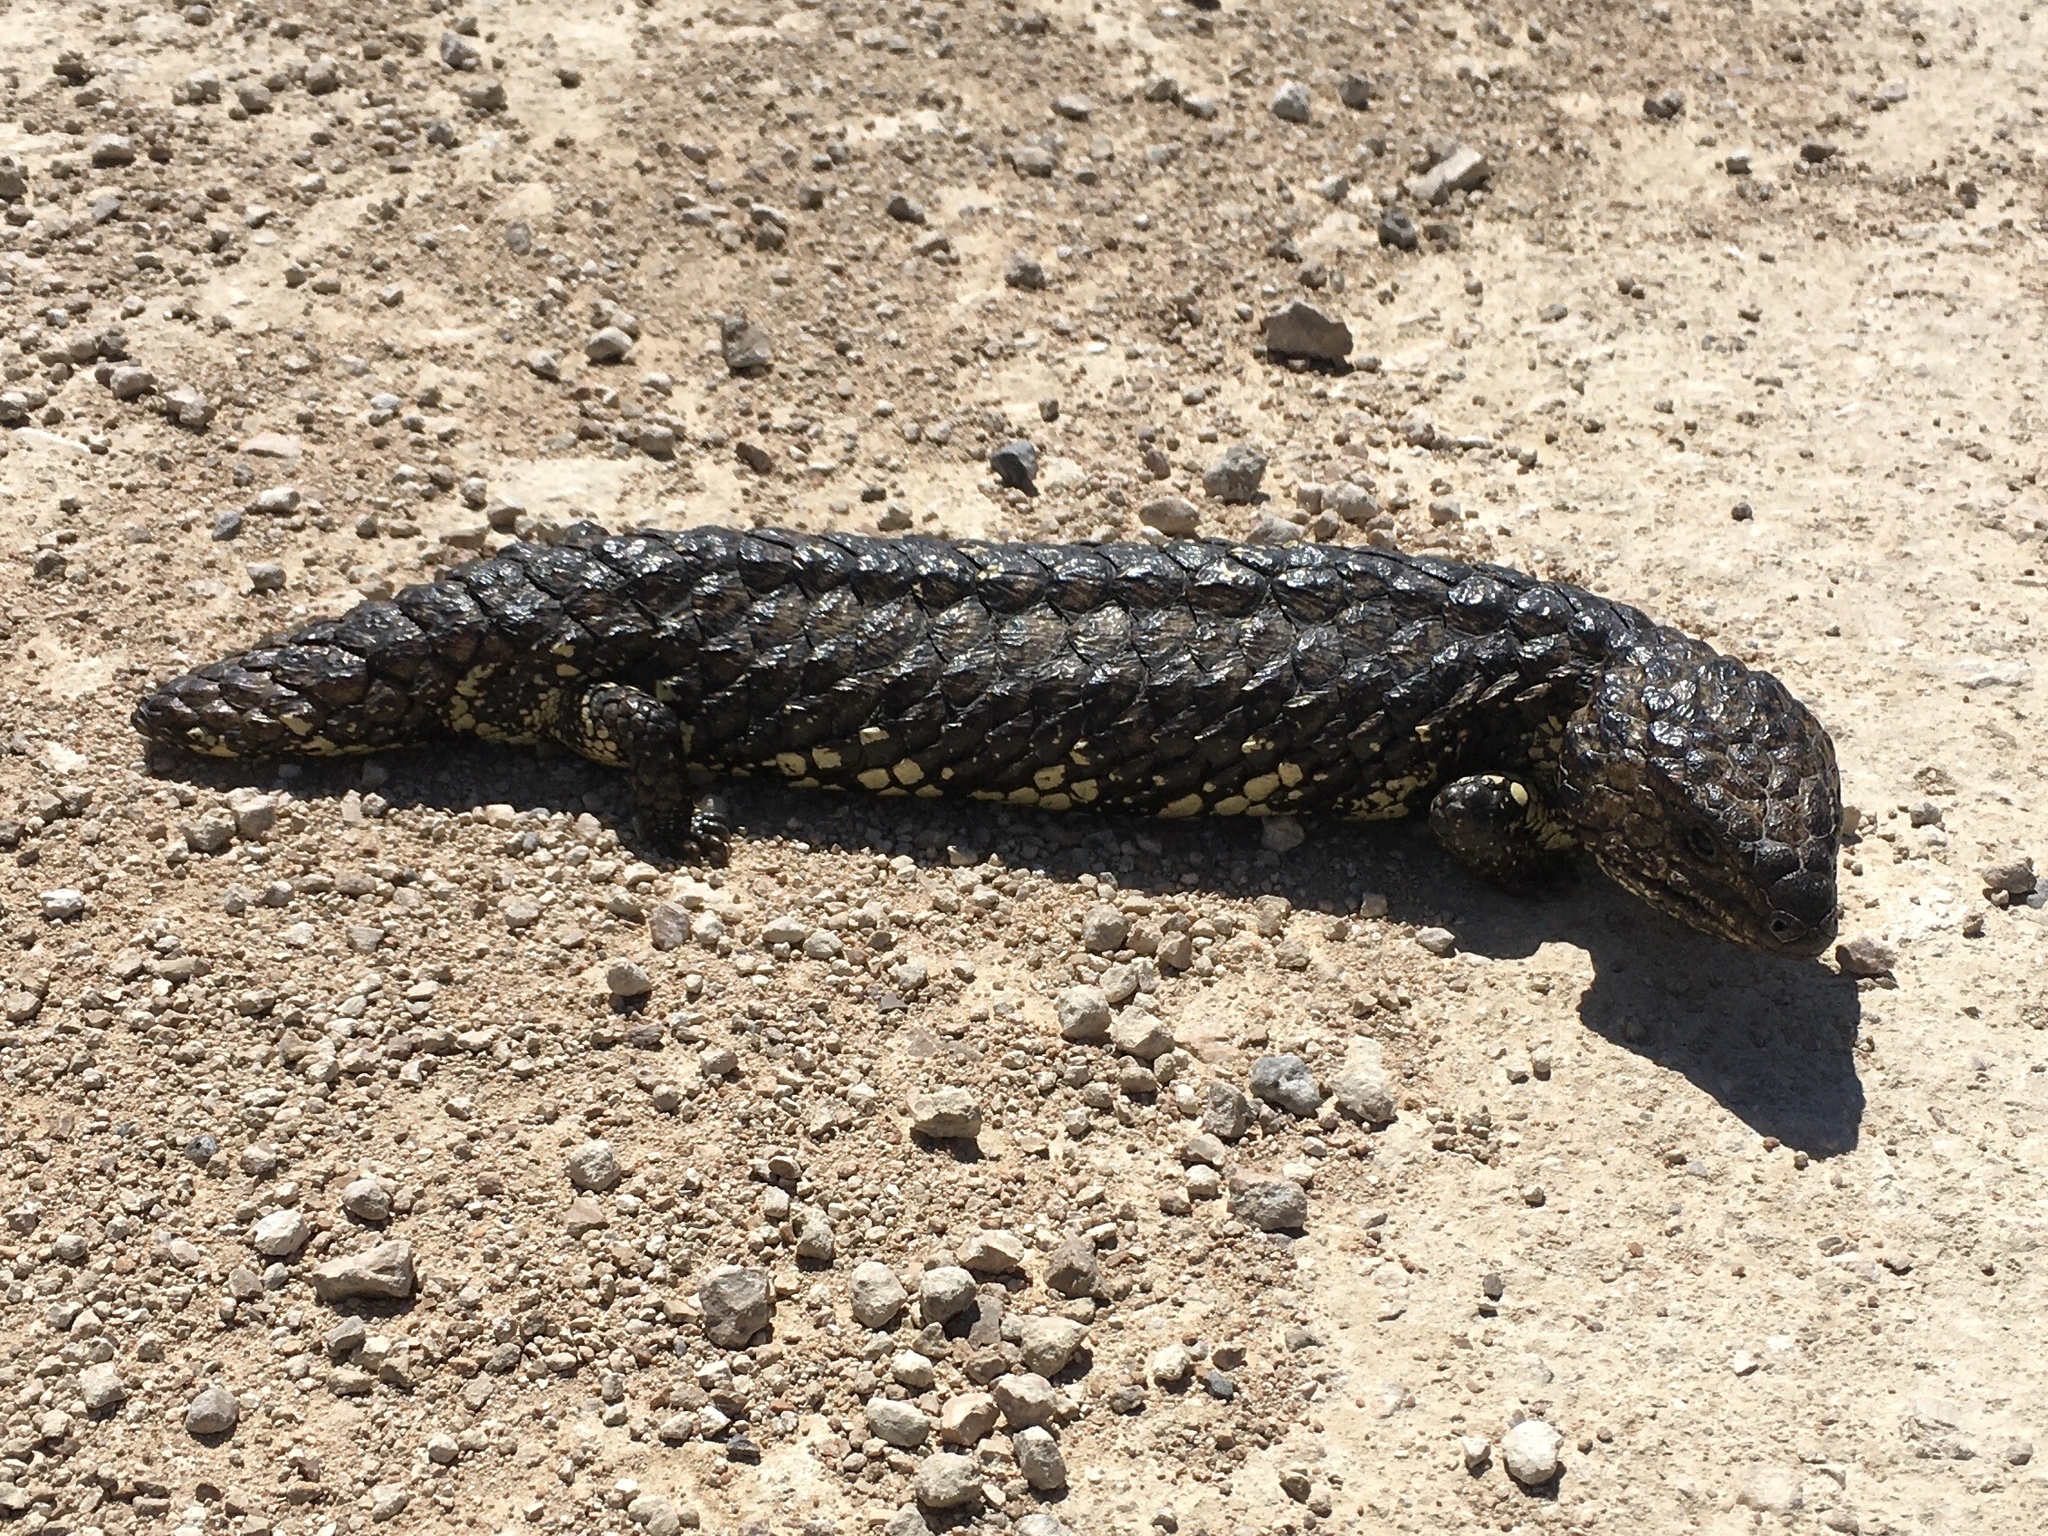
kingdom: Animalia
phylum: Chordata
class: Squamata
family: Scincidae
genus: Tiliqua
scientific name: Tiliqua rugosa
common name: Pinecone lizard
